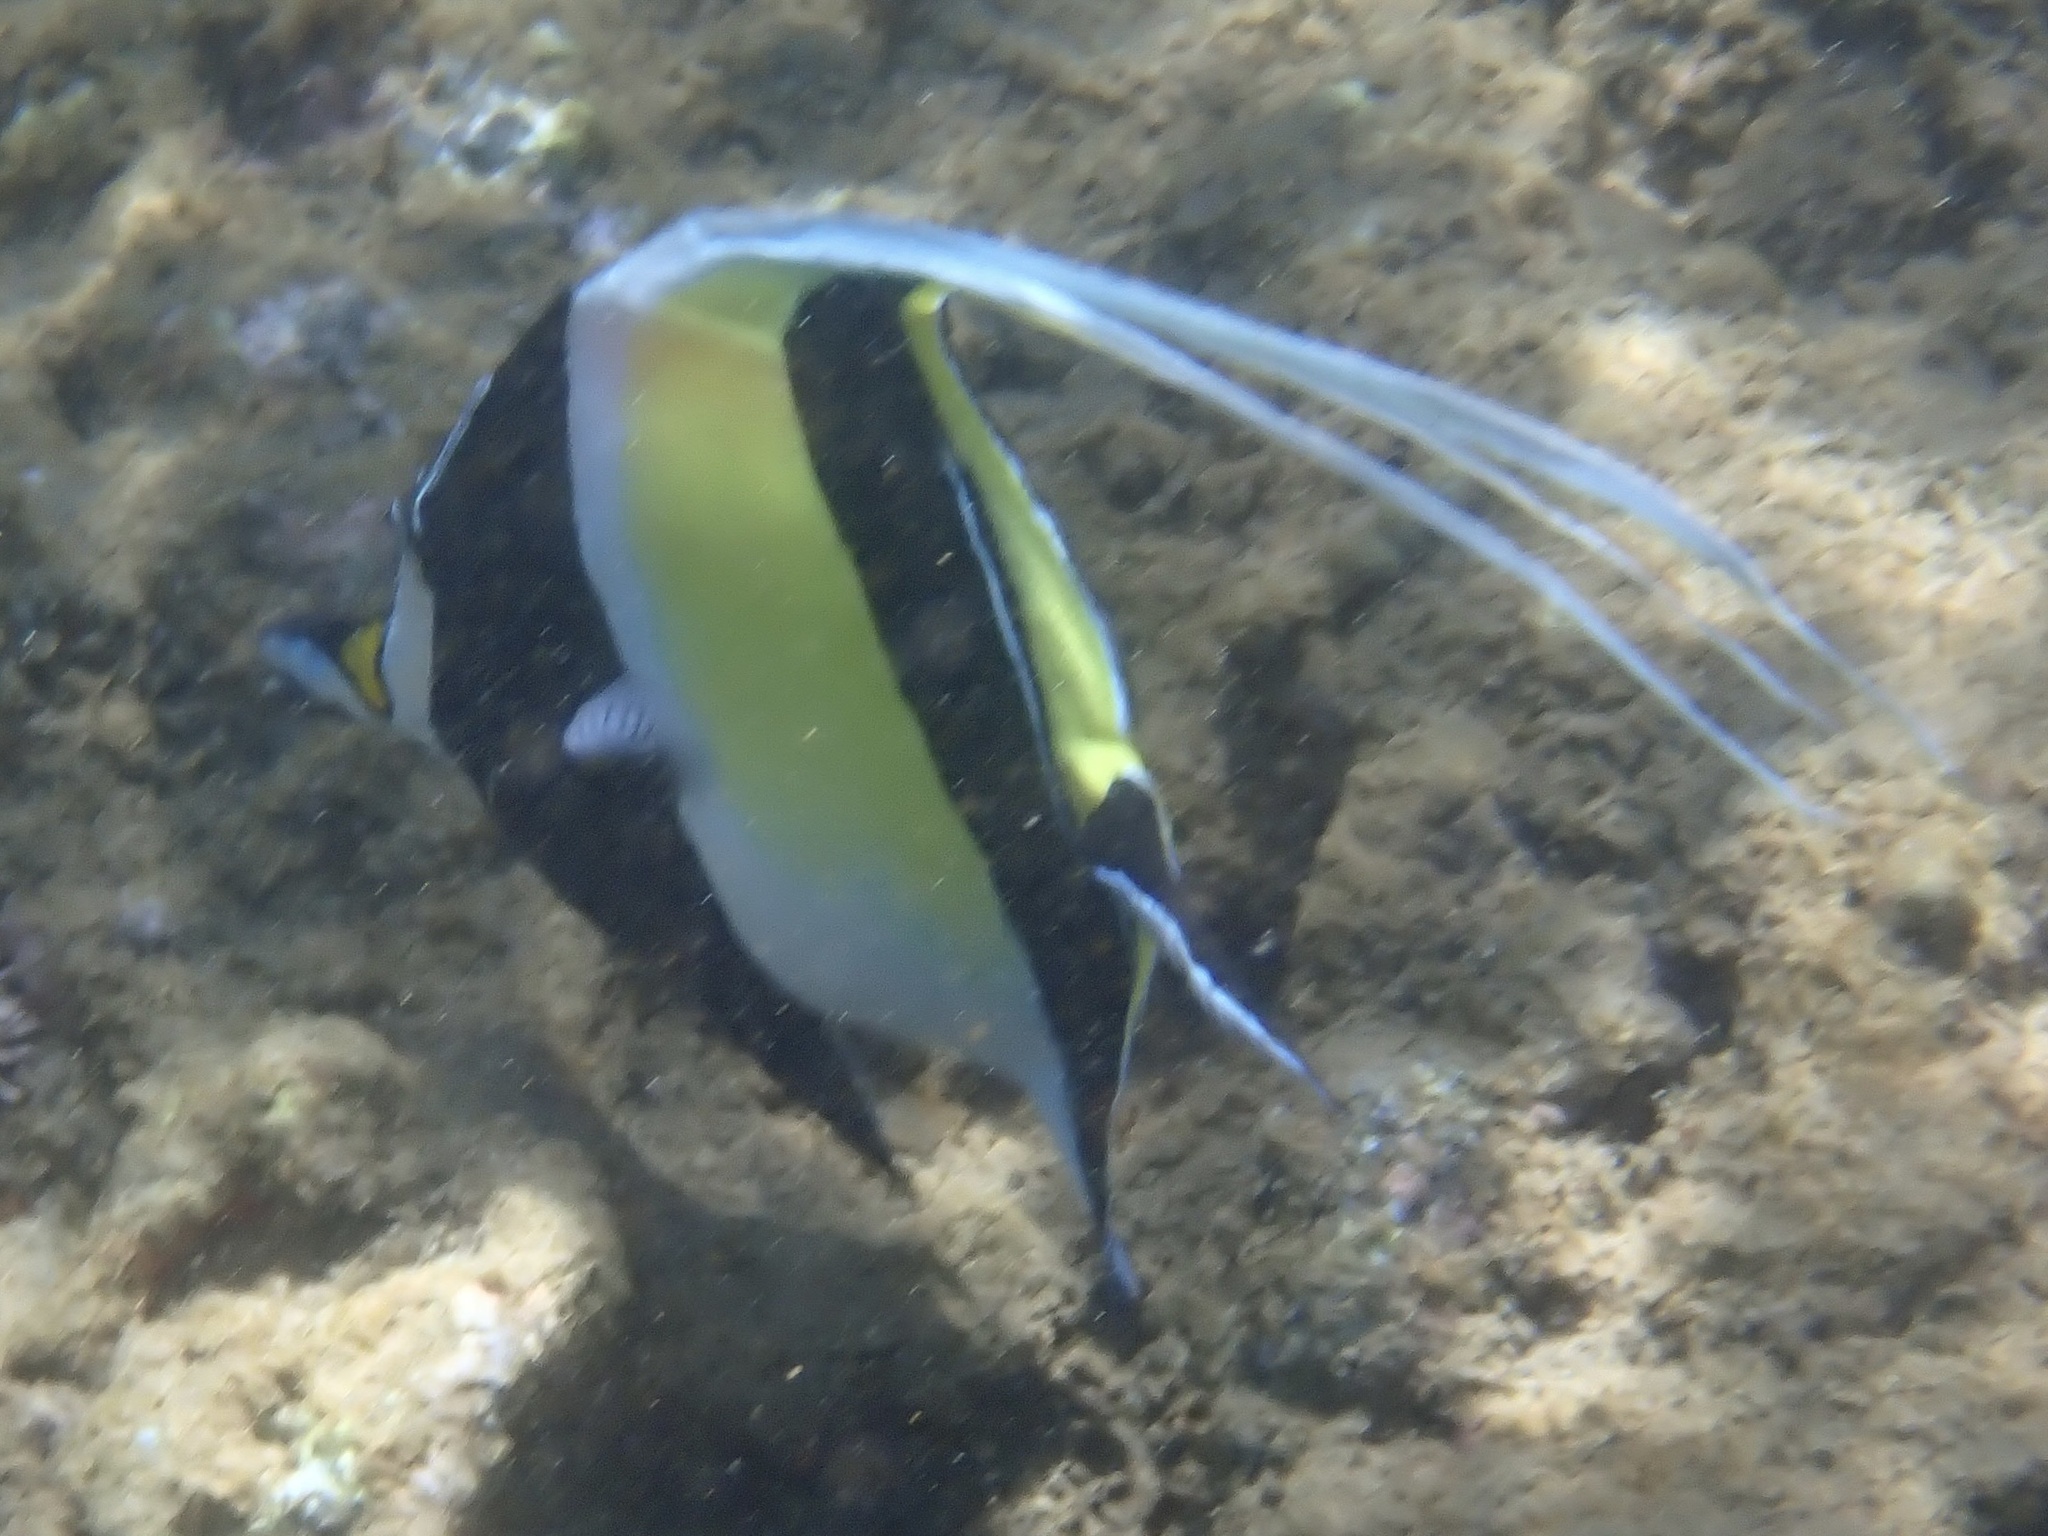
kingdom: Animalia
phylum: Chordata
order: Perciformes
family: Zanclidae
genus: Zanclus
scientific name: Zanclus cornutus
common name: Moorish idol
